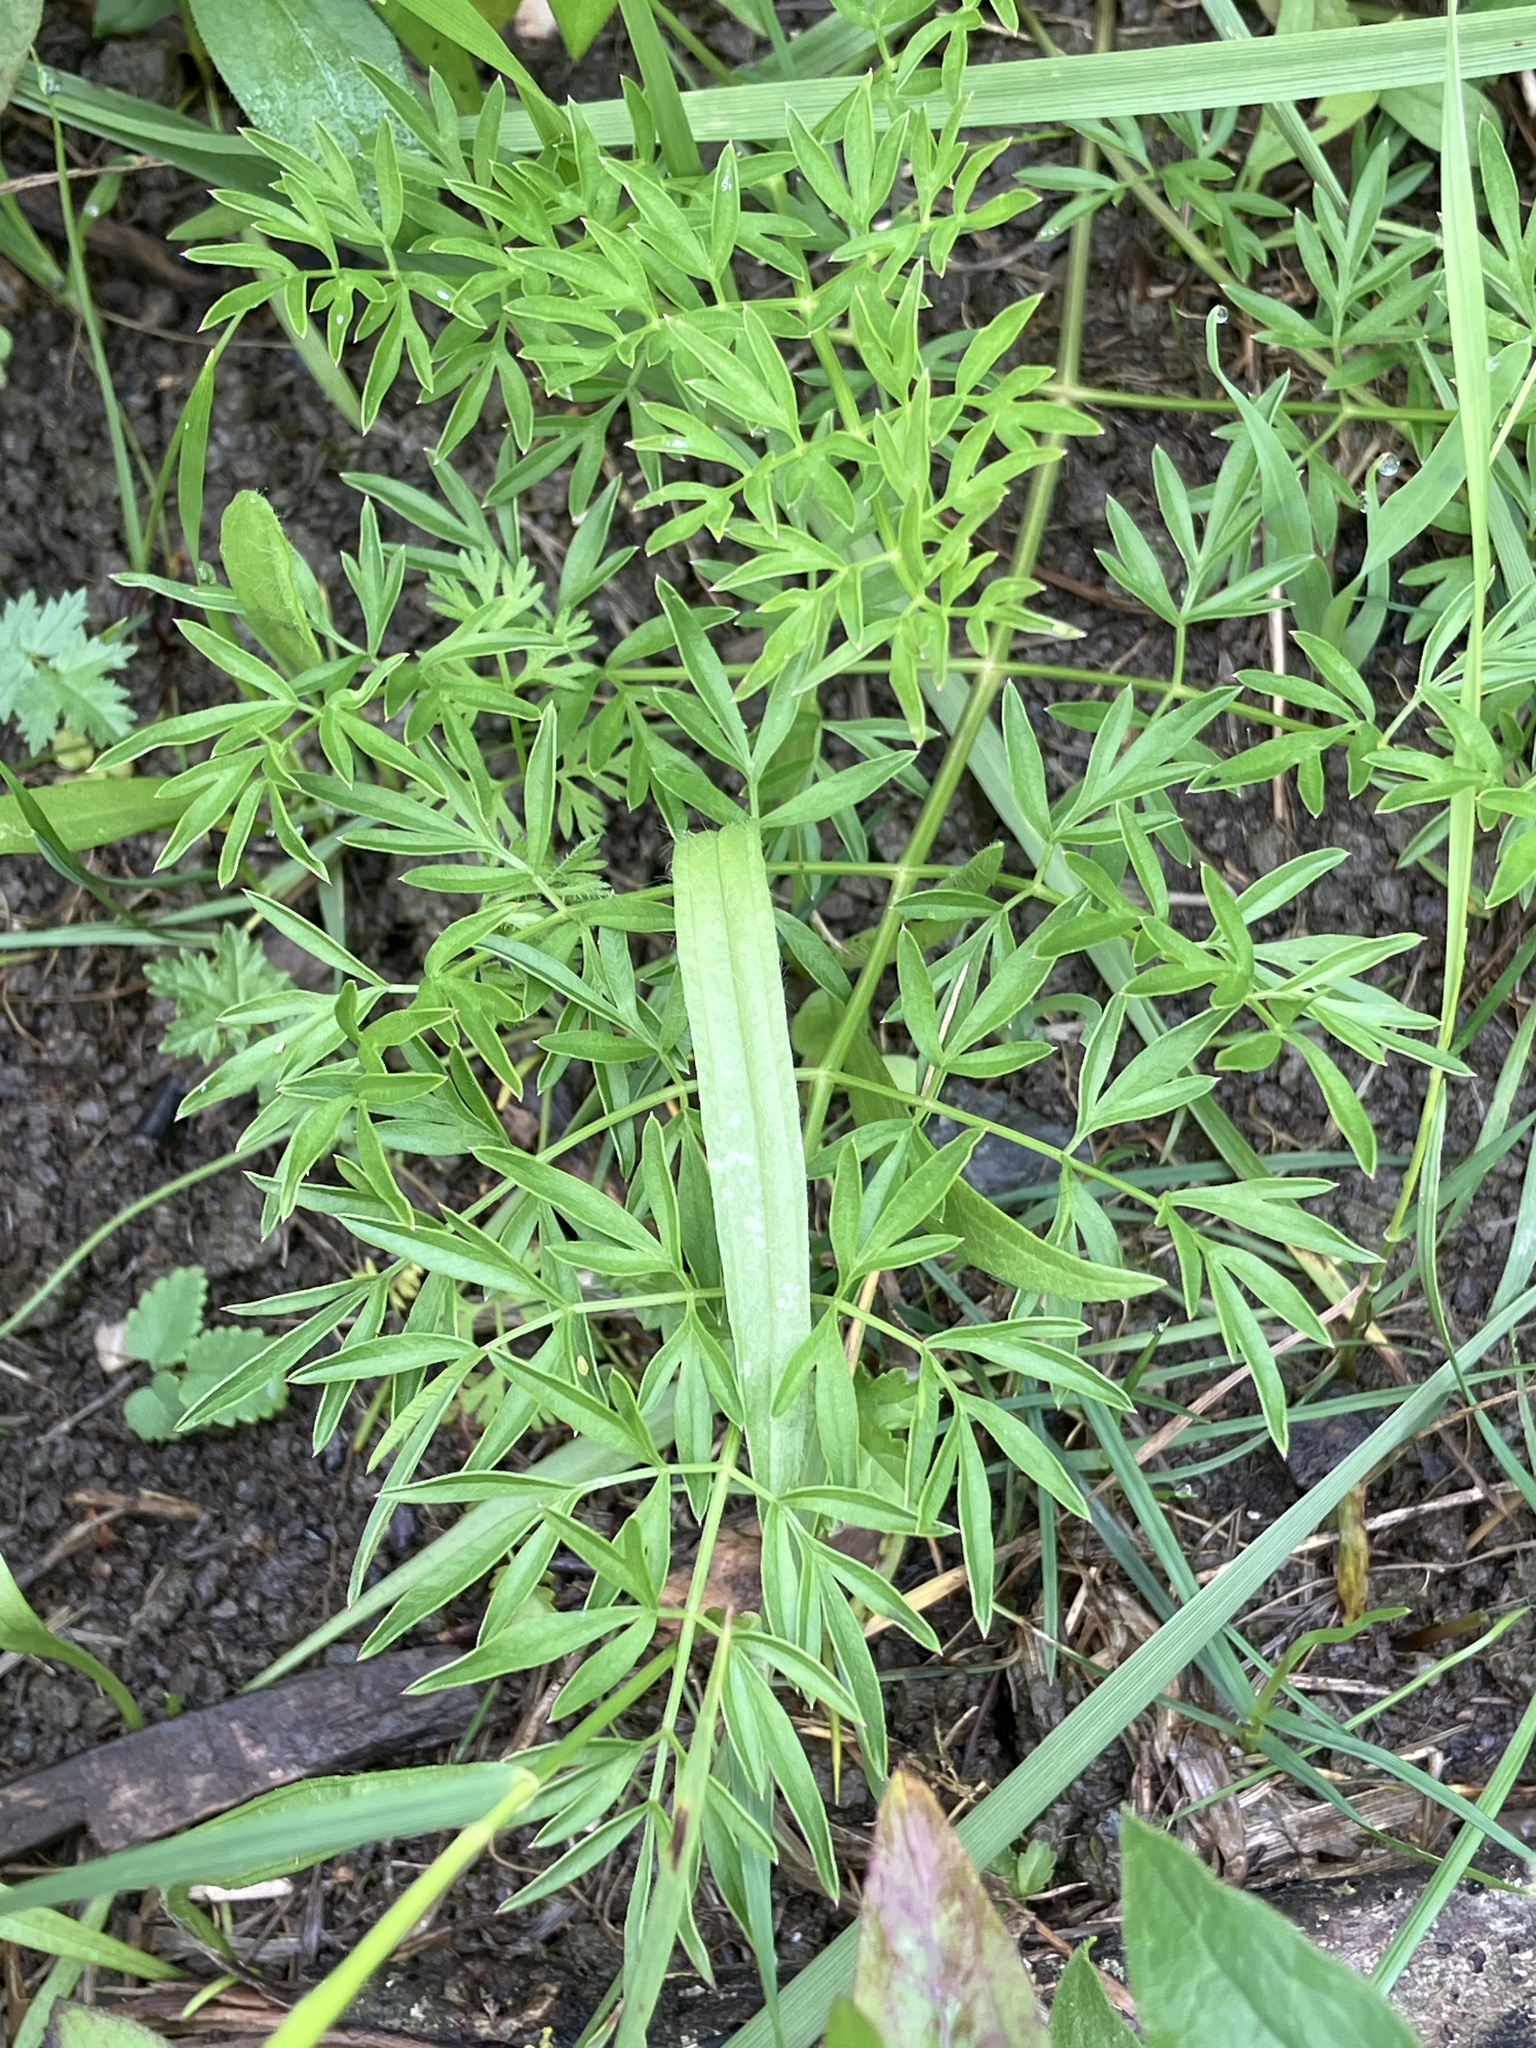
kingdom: Plantae
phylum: Tracheophyta
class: Magnoliopsida
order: Apiales
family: Apiaceae
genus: Silaum
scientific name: Silaum silaus
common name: Pepper-saxifrage
